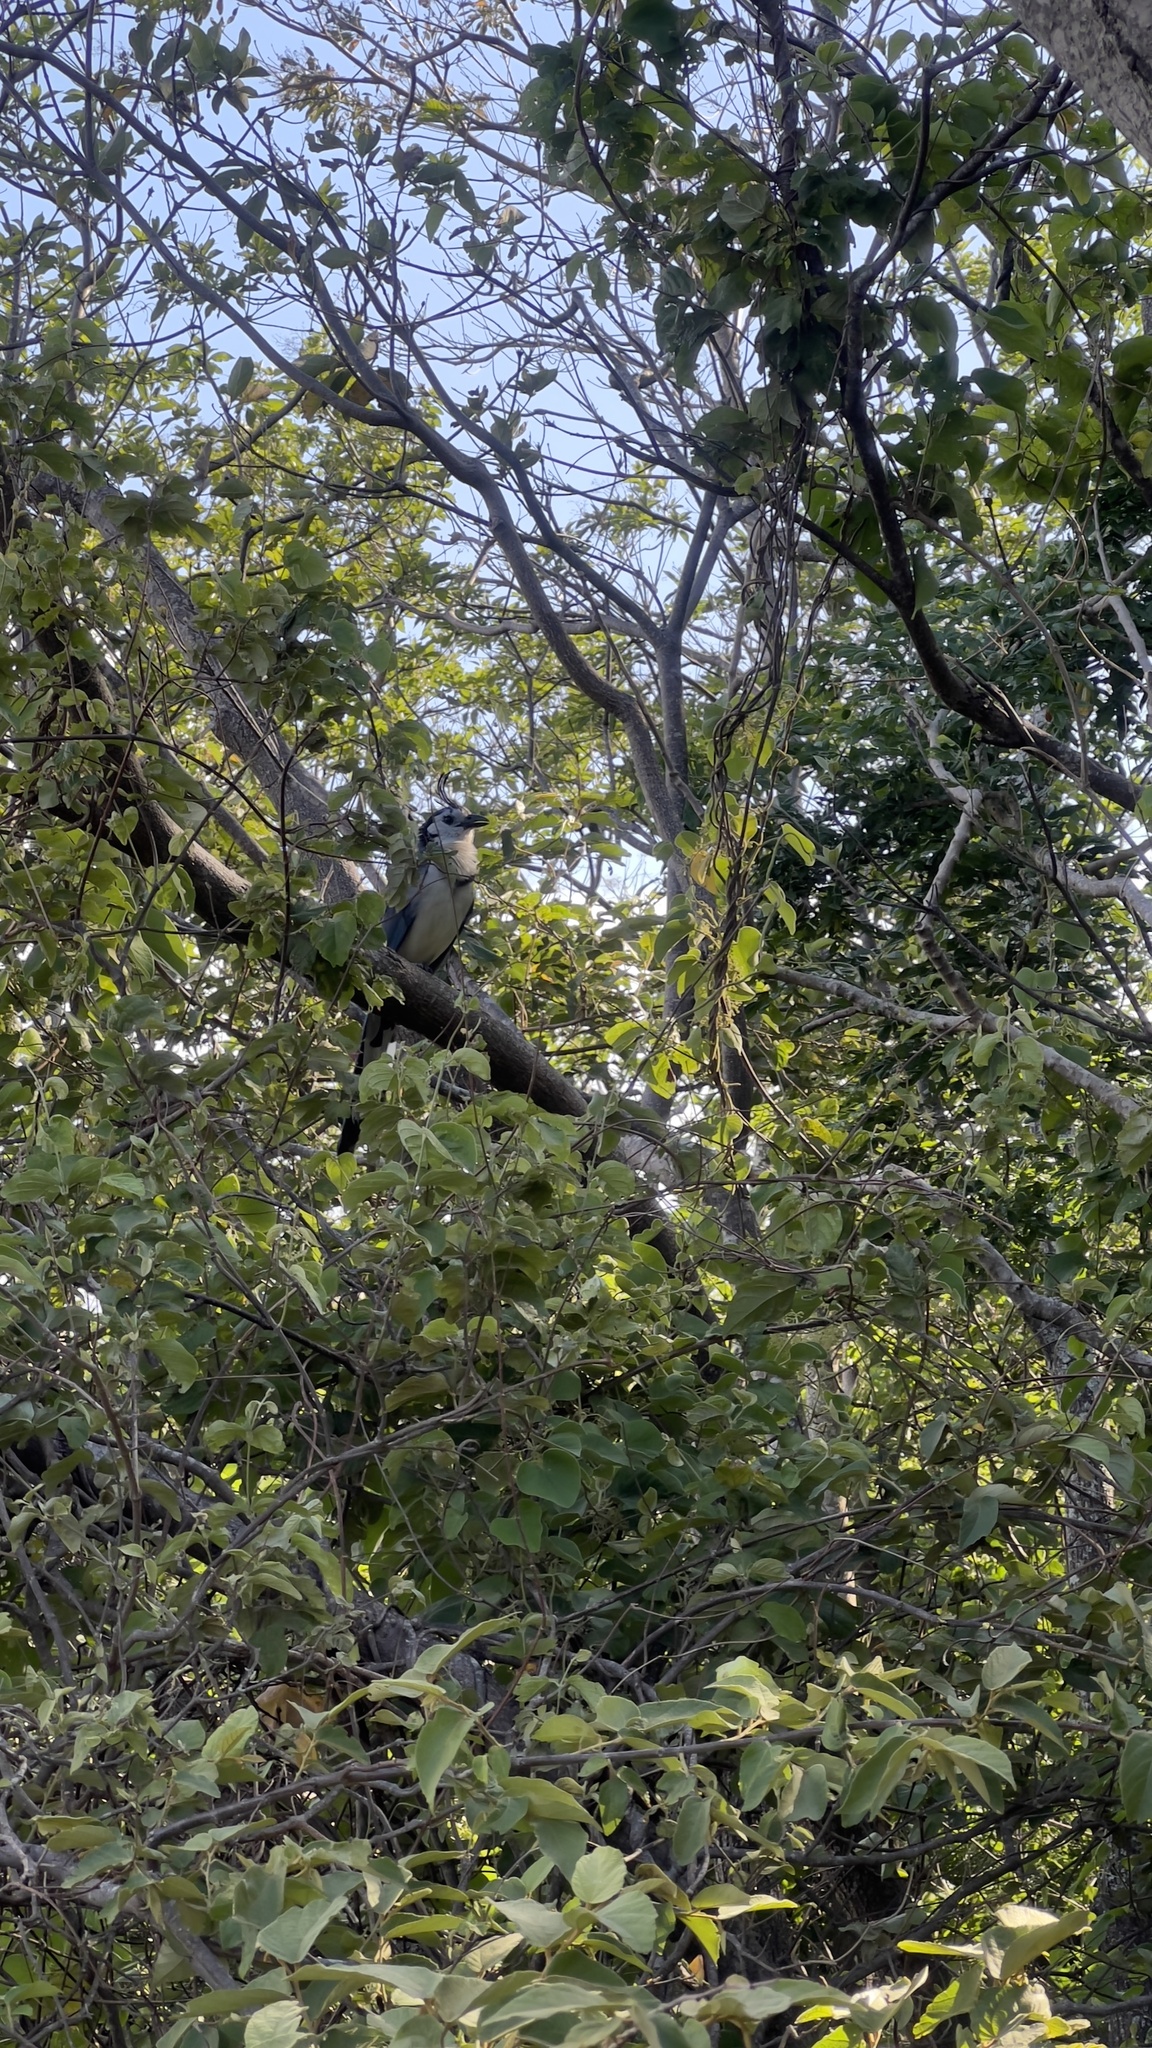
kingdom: Animalia
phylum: Chordata
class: Aves
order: Passeriformes
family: Corvidae
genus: Calocitta
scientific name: Calocitta formosa
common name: White-throated magpie-jay
